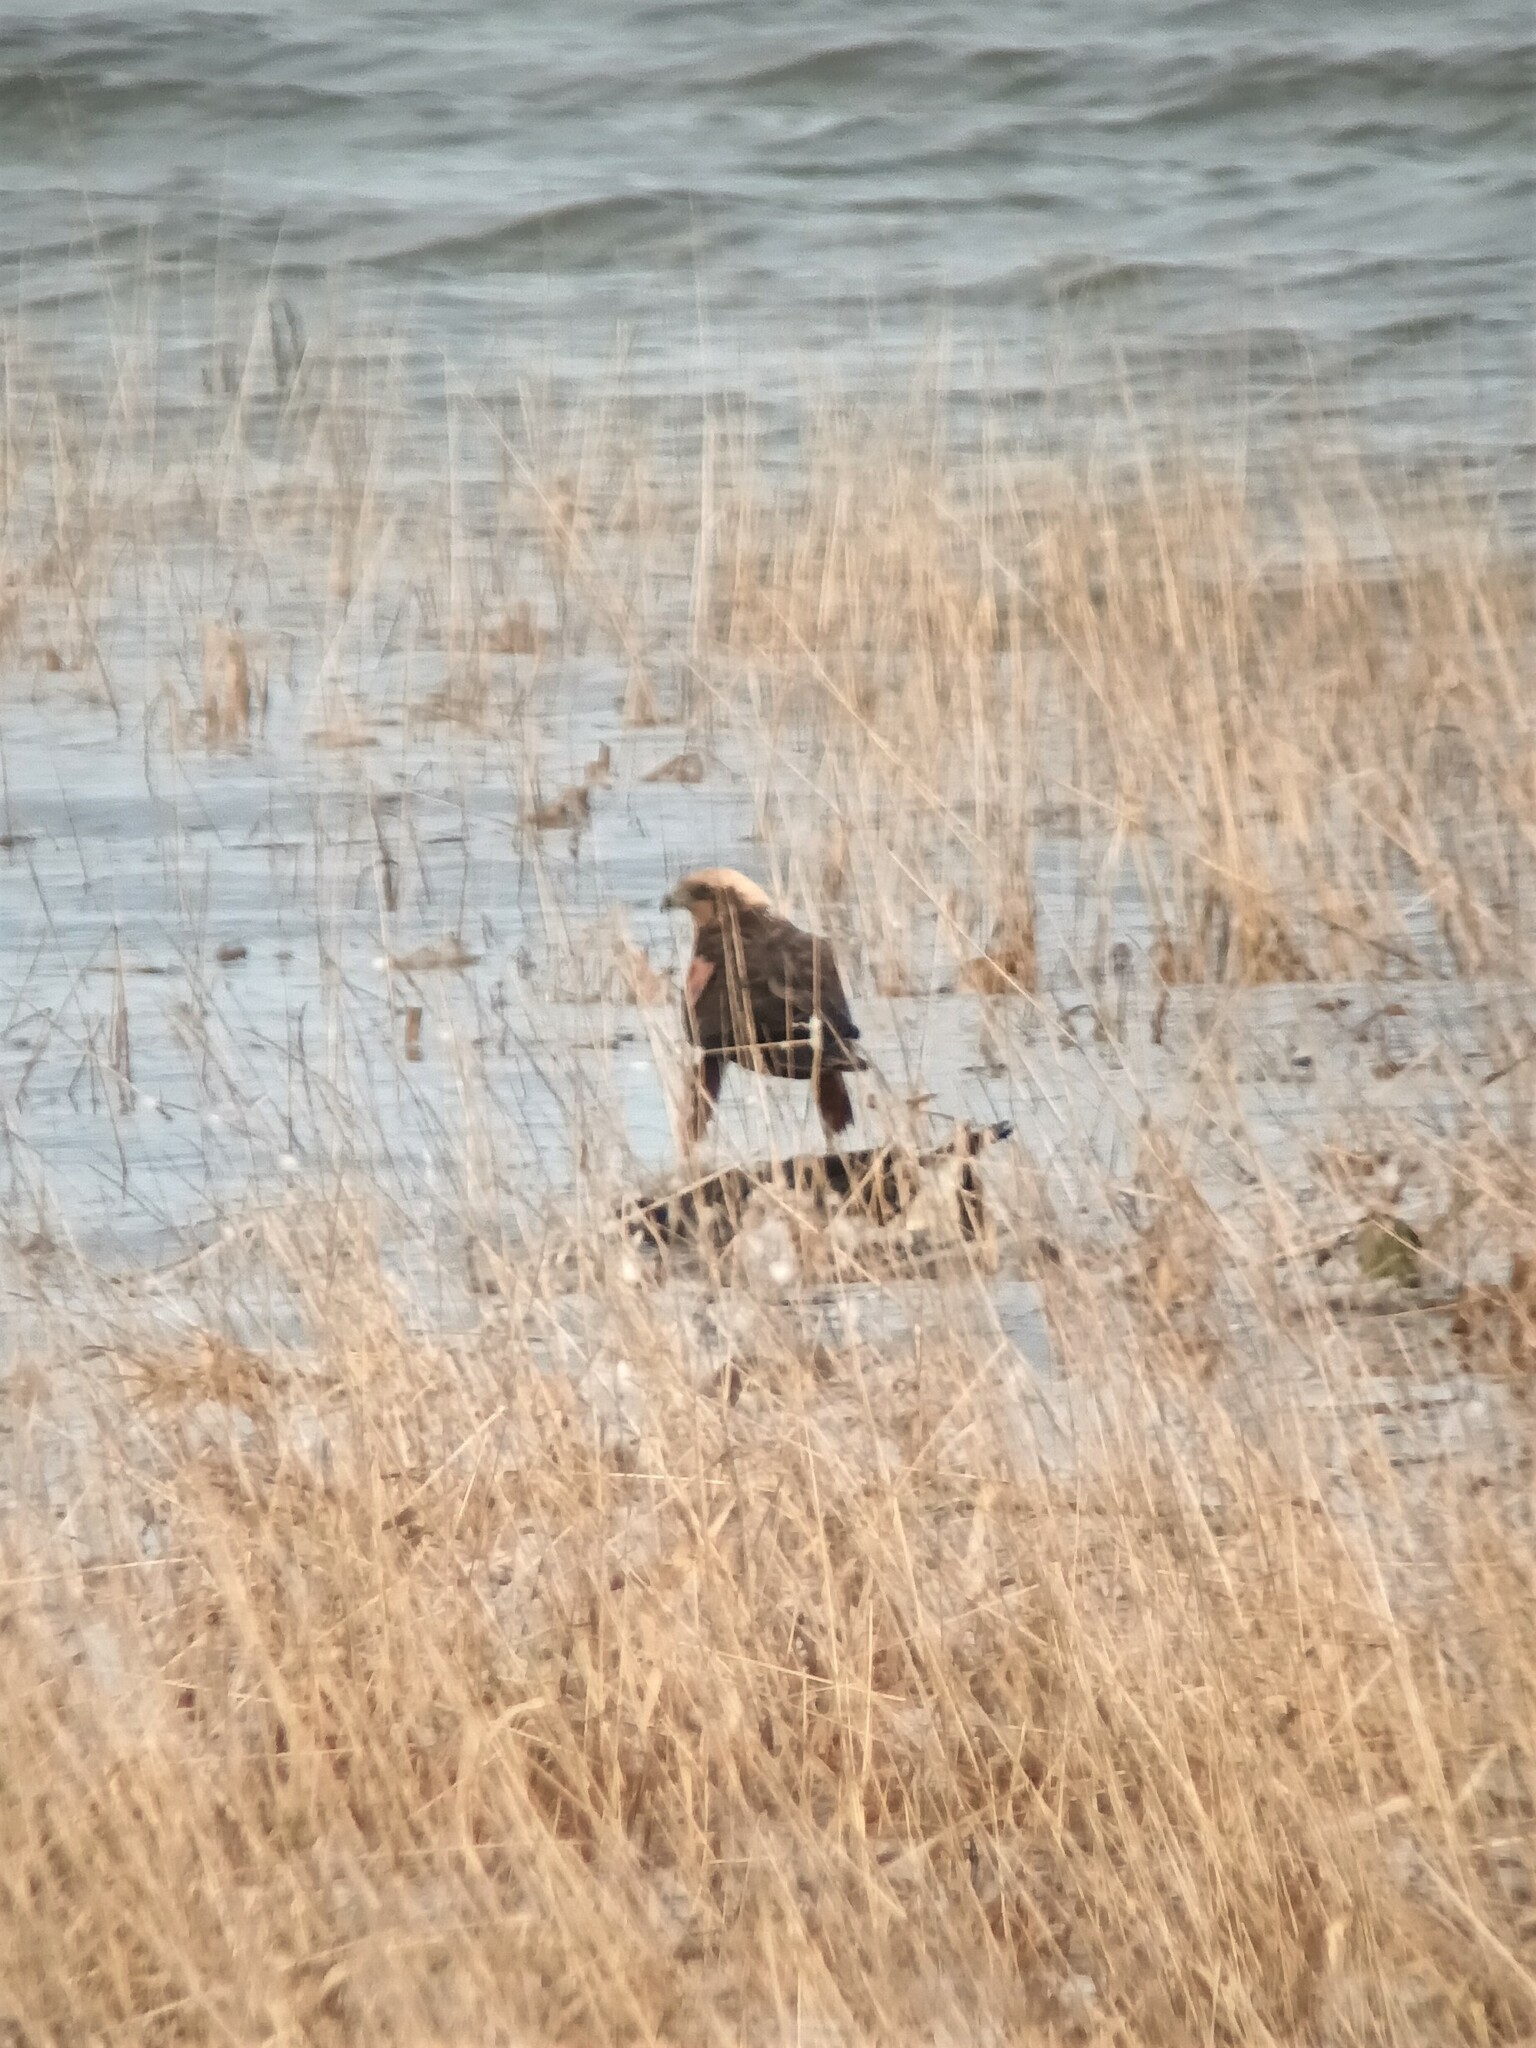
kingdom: Animalia
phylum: Chordata
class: Aves
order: Accipitriformes
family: Accipitridae
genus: Circus
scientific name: Circus aeruginosus
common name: Western marsh harrier
